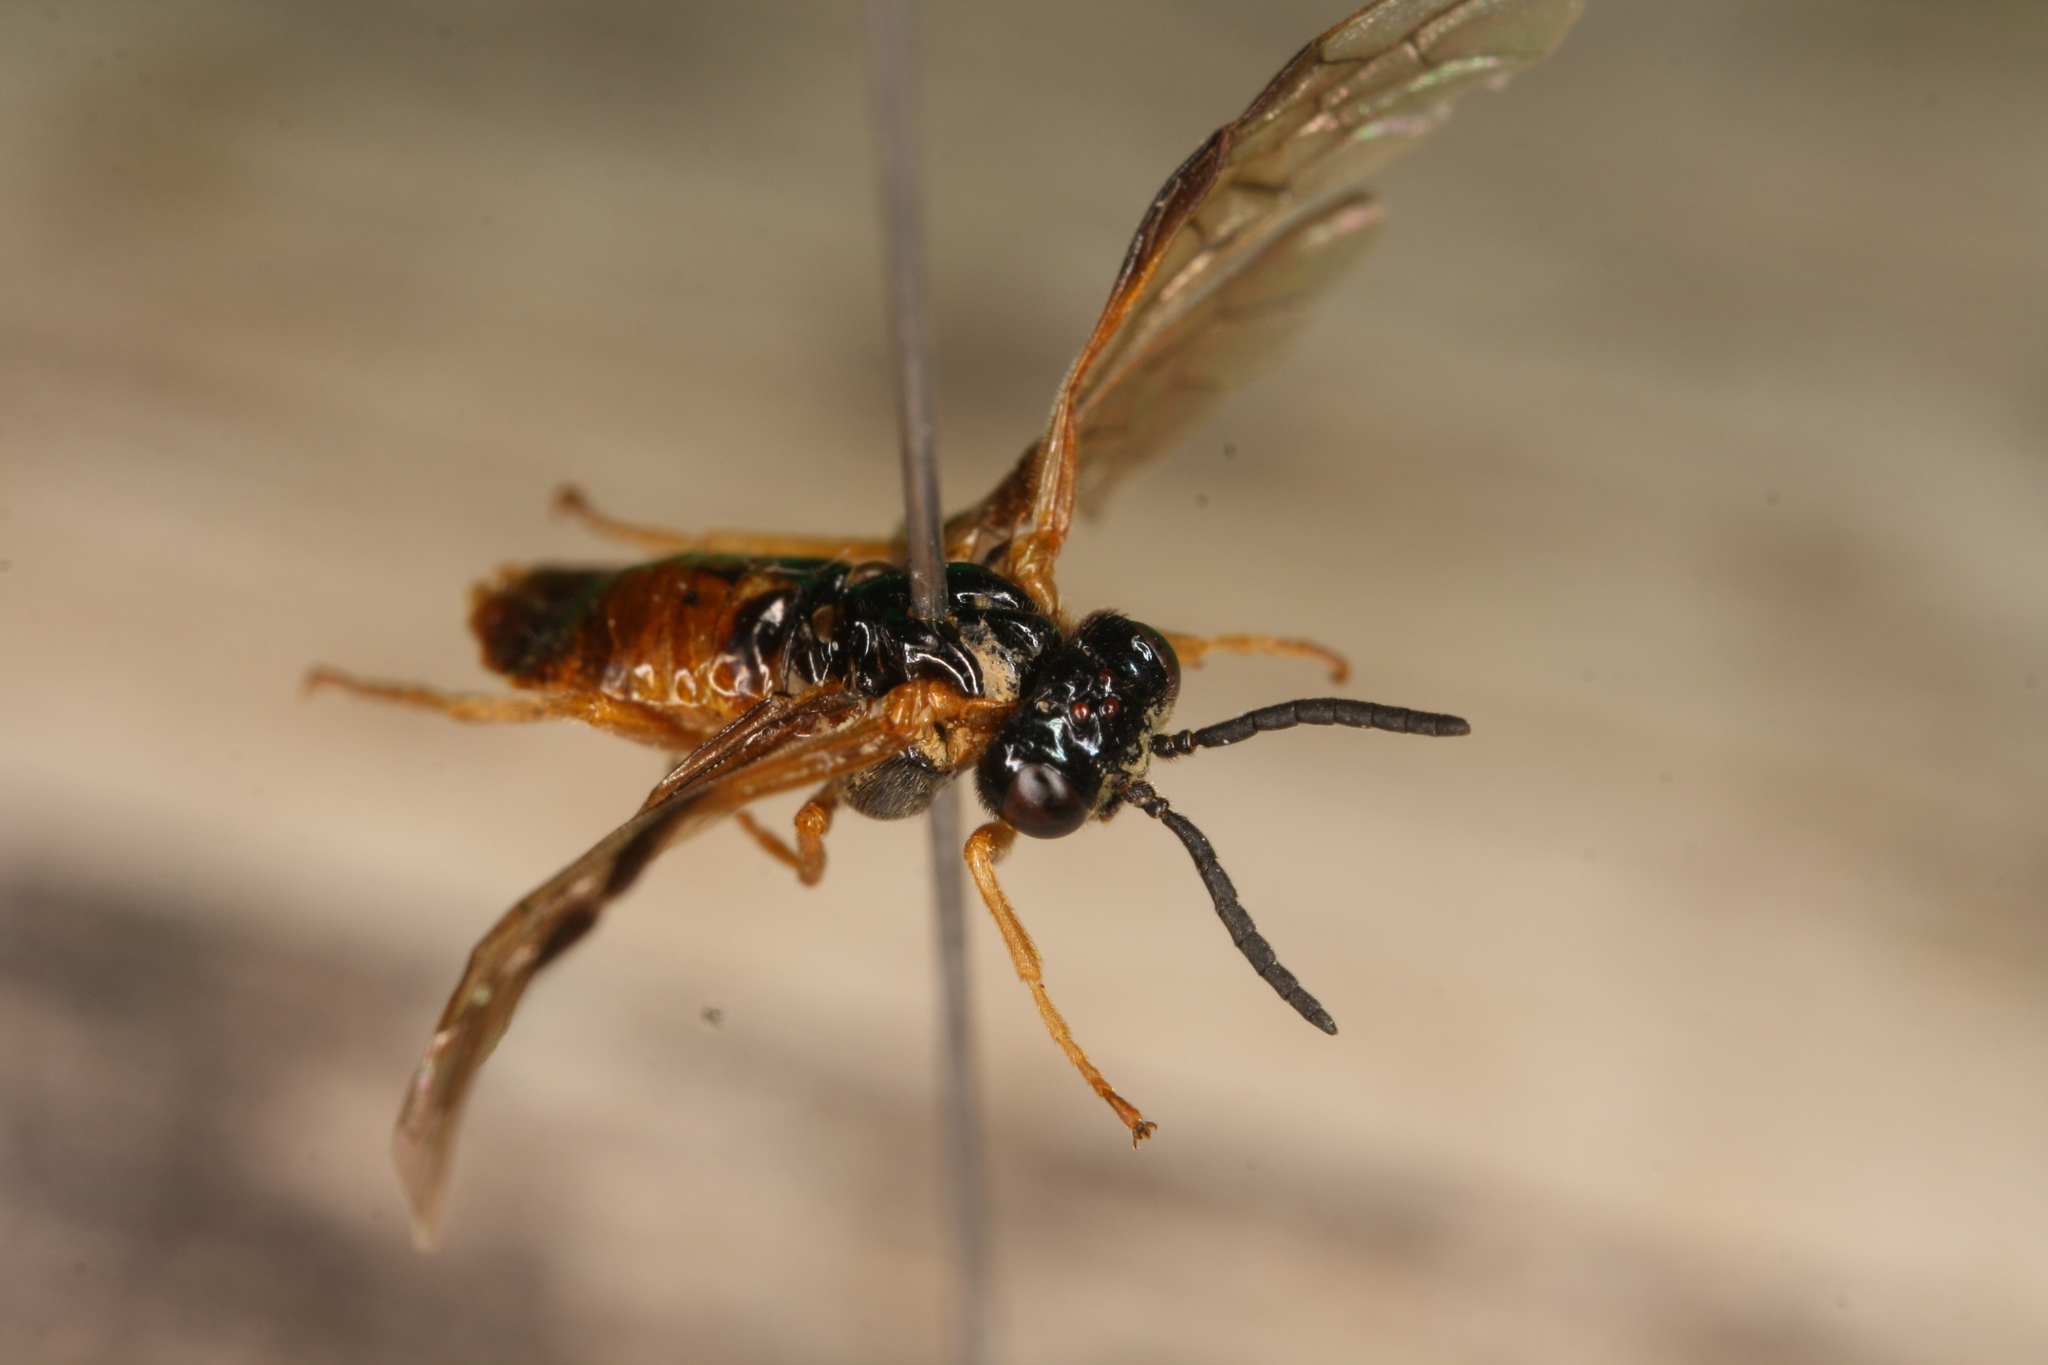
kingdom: Animalia
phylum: Arthropoda
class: Insecta
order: Hymenoptera
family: Tenthredinidae
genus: Selandria
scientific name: Selandria serva
